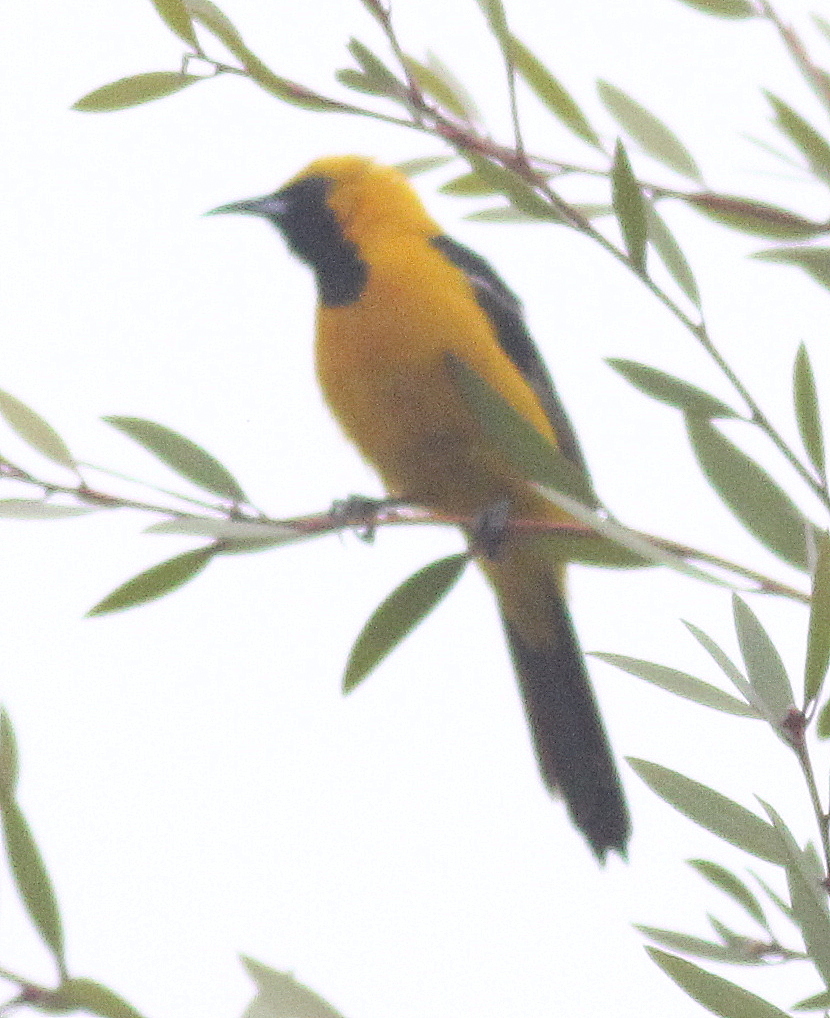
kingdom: Animalia
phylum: Chordata
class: Aves
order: Passeriformes
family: Icteridae
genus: Icterus
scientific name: Icterus cucullatus
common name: Hooded oriole
